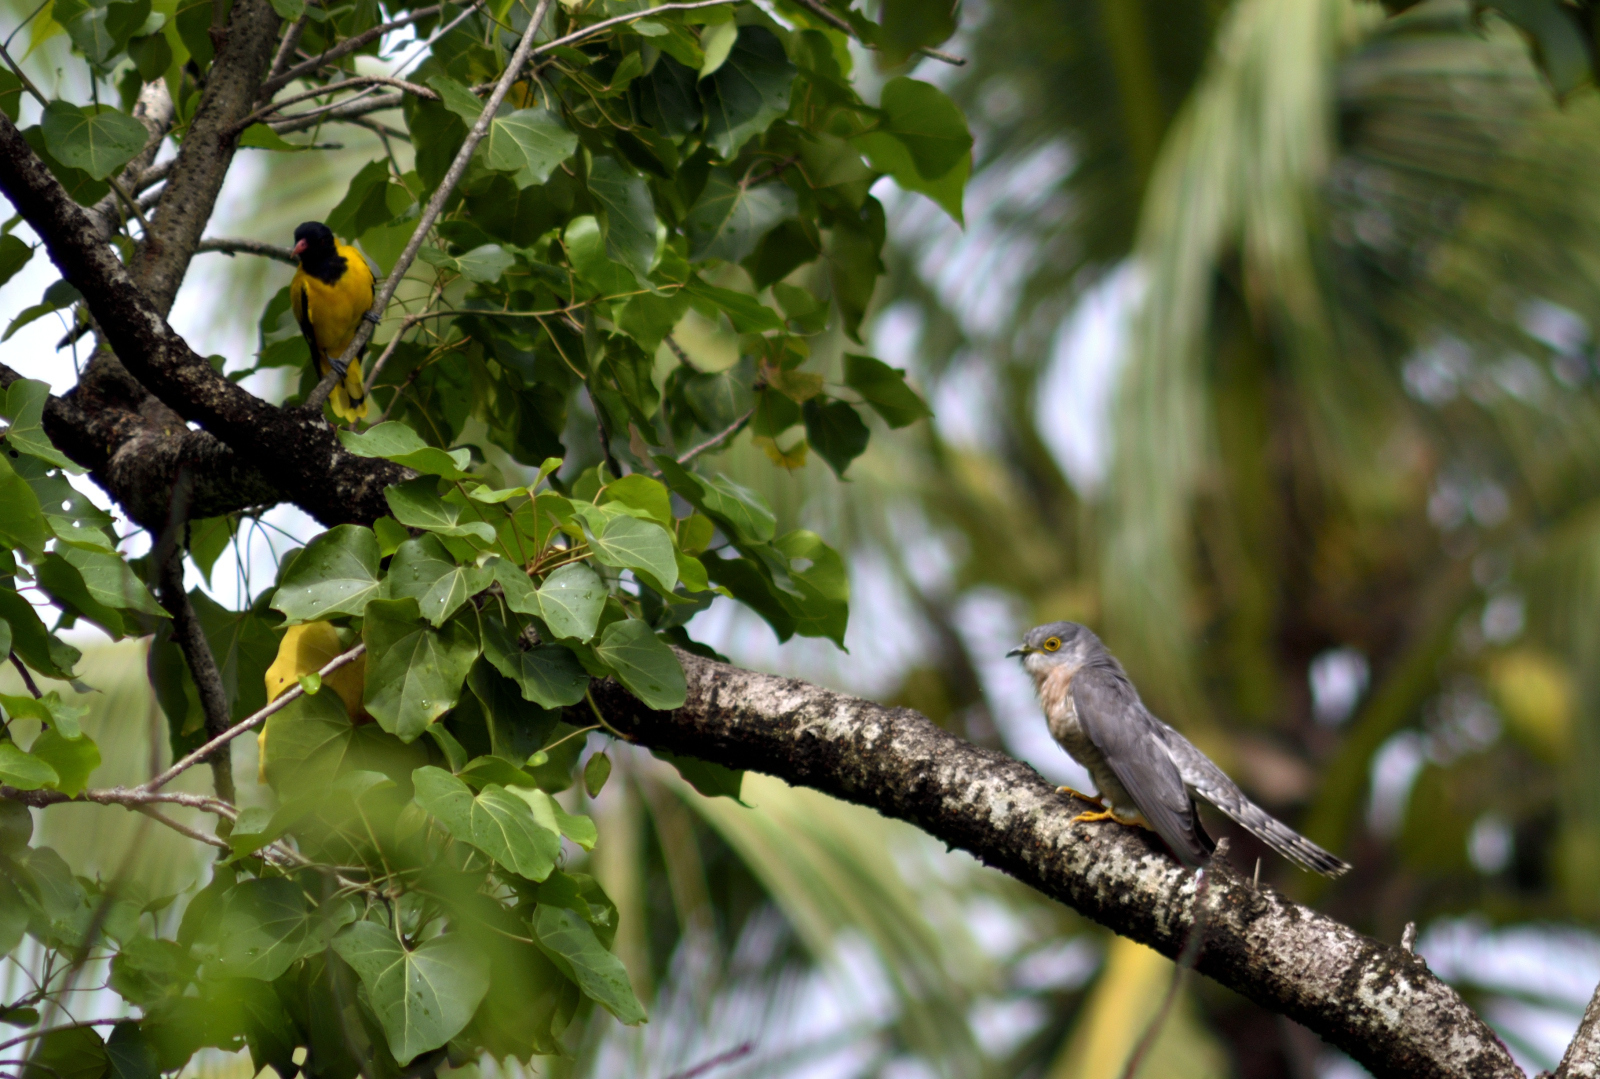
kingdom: Animalia
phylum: Chordata
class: Aves
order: Cuculiformes
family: Cuculidae
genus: Cuculus
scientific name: Cuculus varius
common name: Common hawk cuckoo
